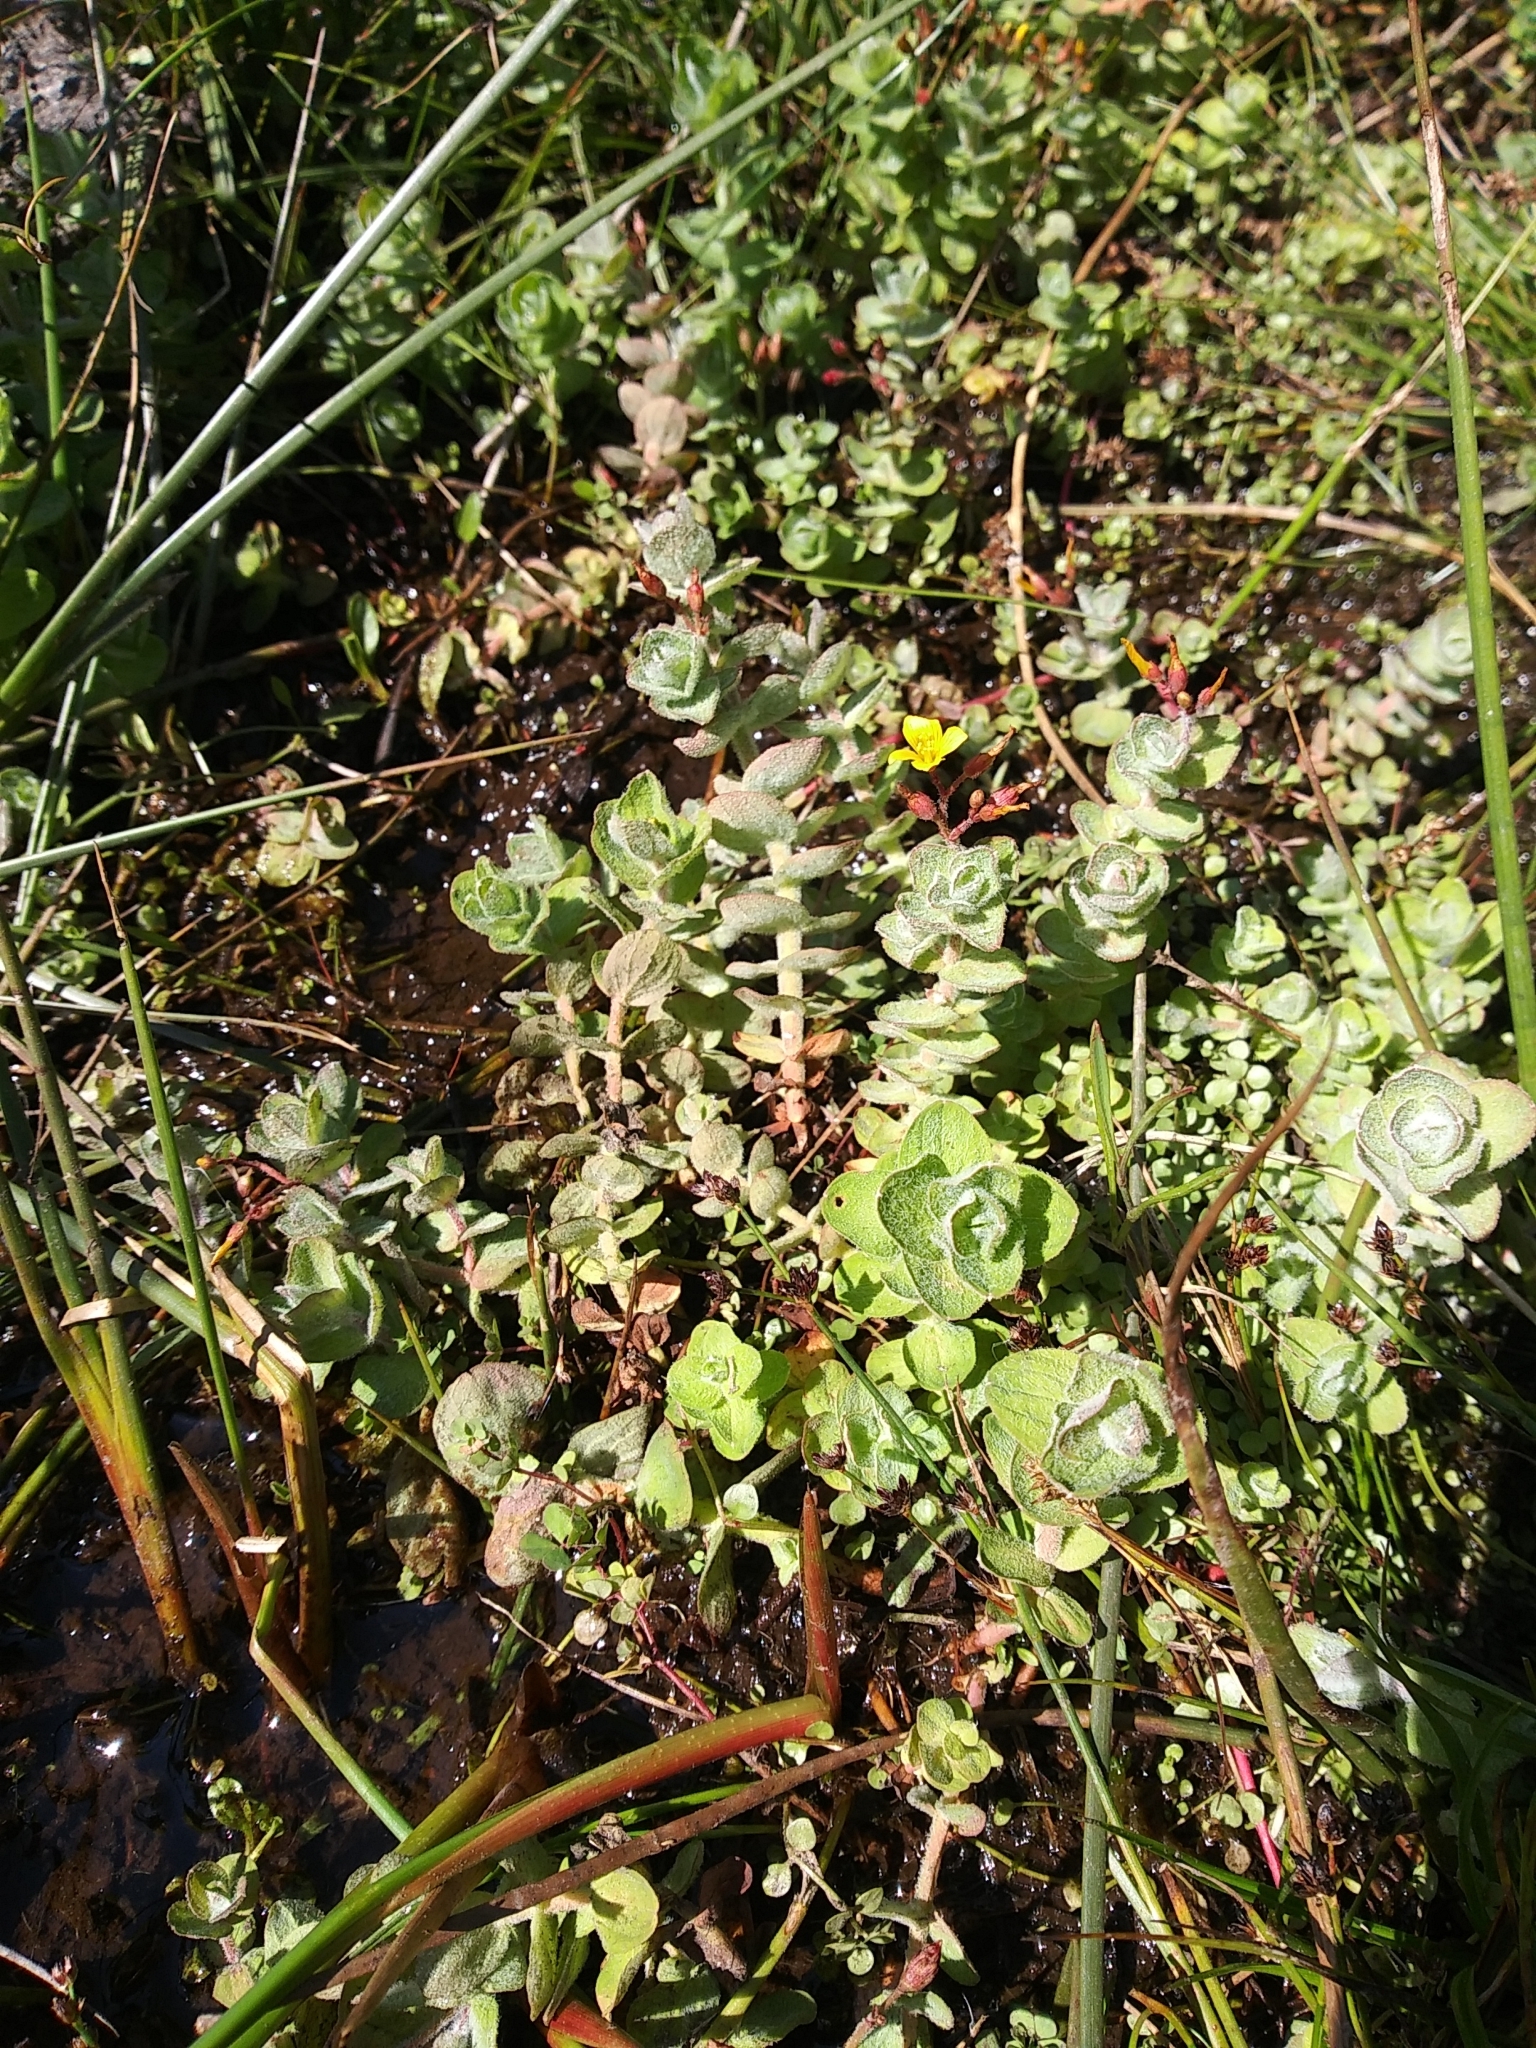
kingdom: Plantae
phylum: Tracheophyta
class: Magnoliopsida
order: Malpighiales
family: Hypericaceae
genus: Hypericum
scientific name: Hypericum elodes
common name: Marsh st. john's-wort
